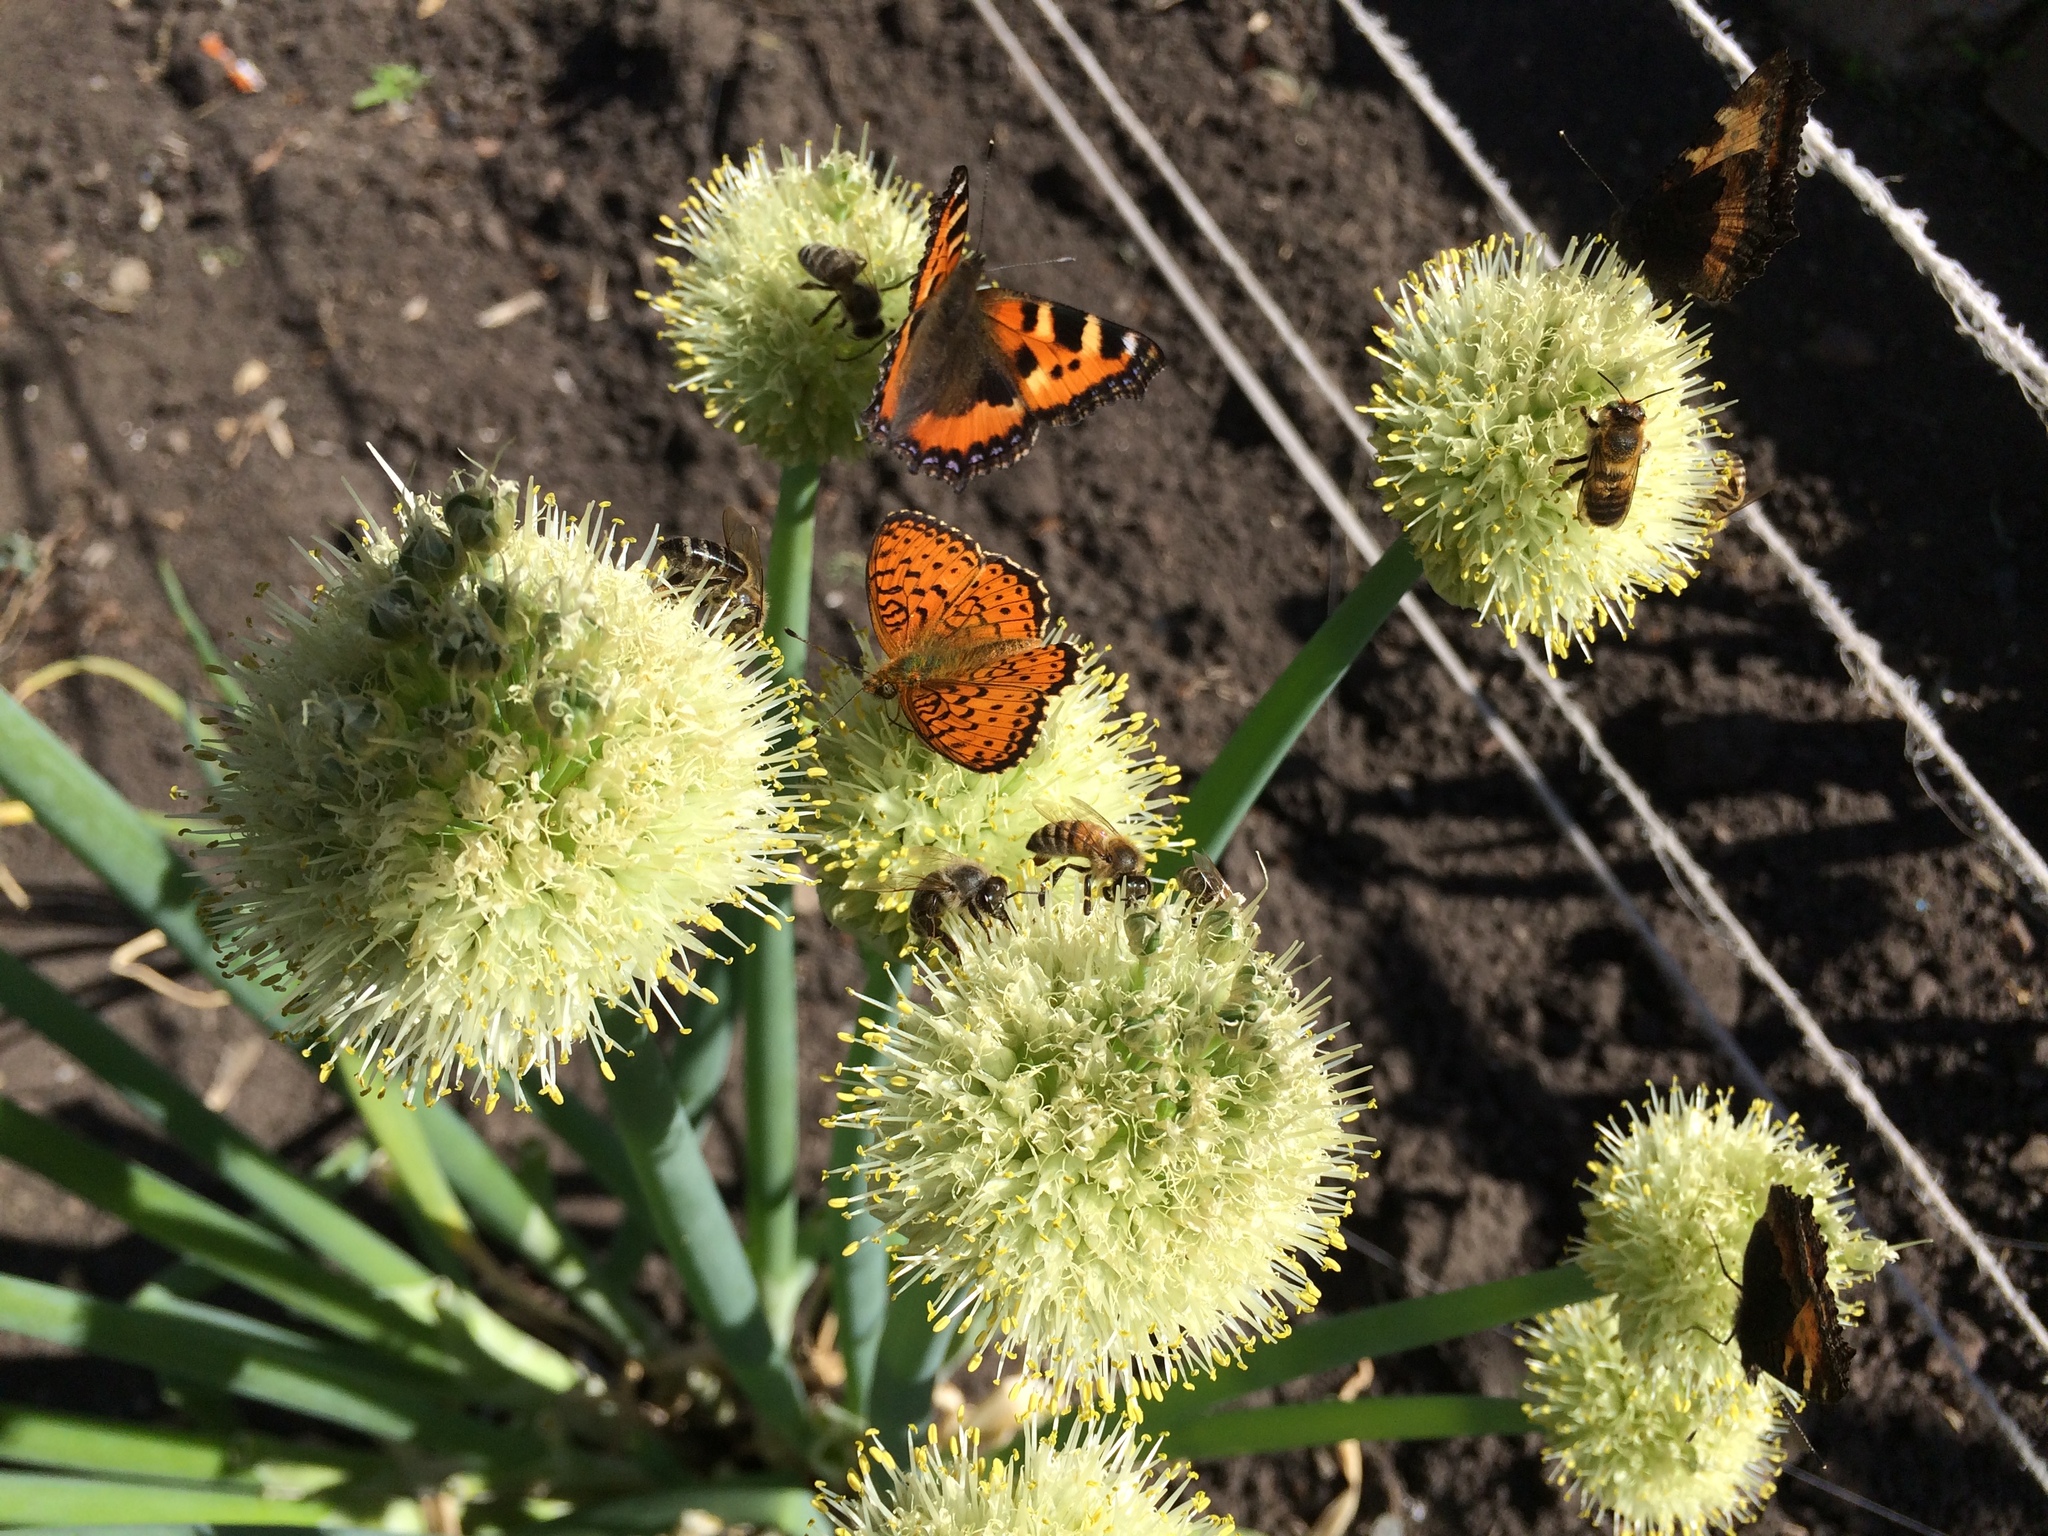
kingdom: Plantae
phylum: Tracheophyta
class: Liliopsida
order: Asparagales
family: Amaryllidaceae
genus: Allium
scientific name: Allium fistulosum
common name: Welsh onion
